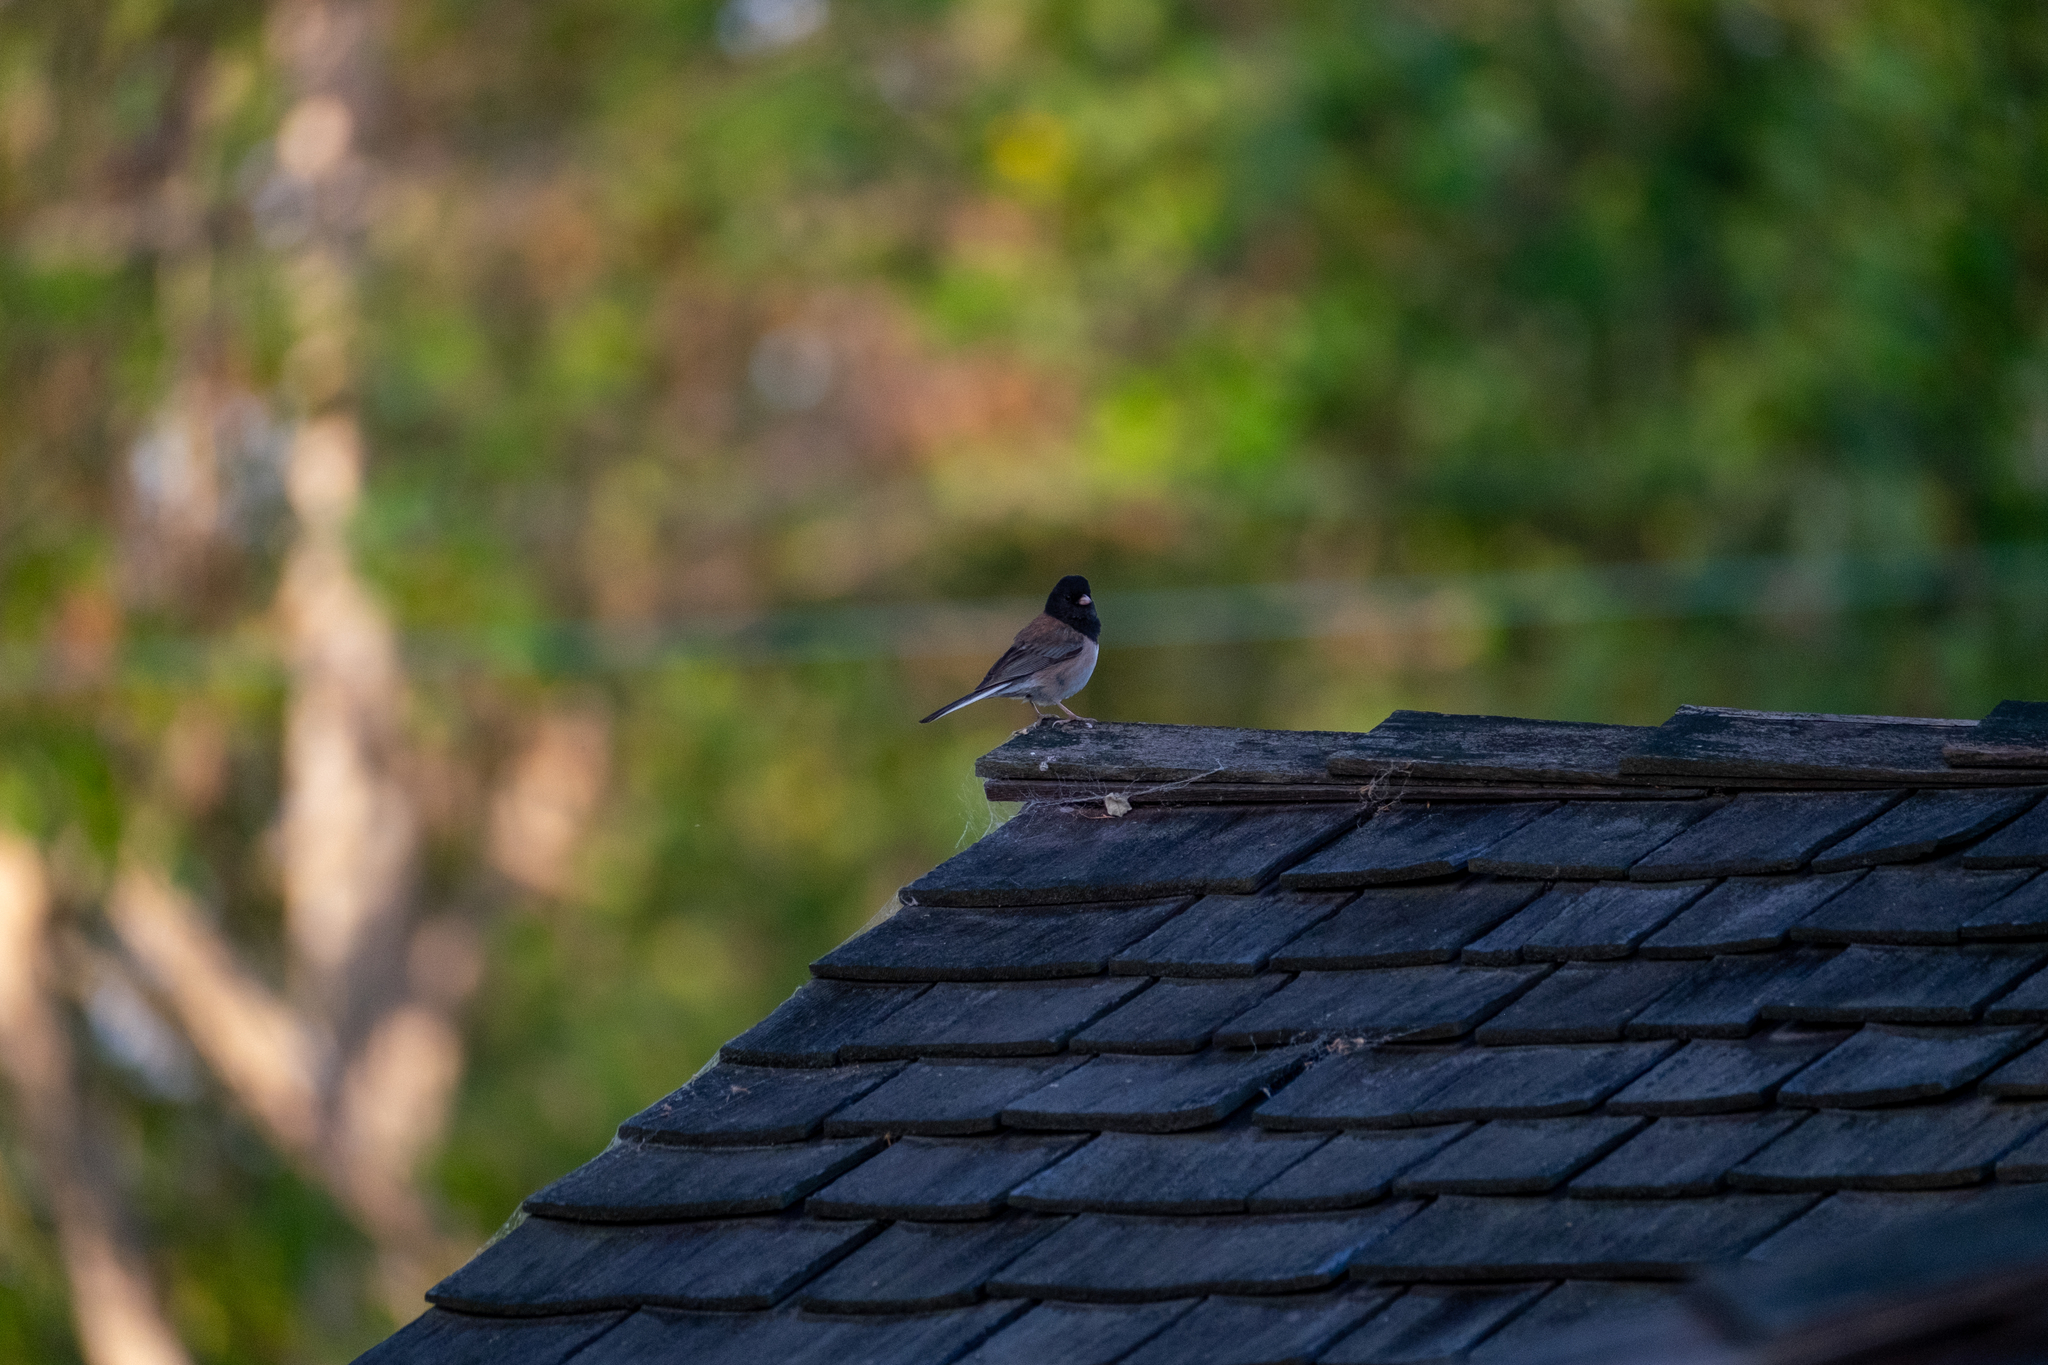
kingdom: Animalia
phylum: Chordata
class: Aves
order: Passeriformes
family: Passerellidae
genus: Junco
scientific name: Junco hyemalis
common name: Dark-eyed junco
